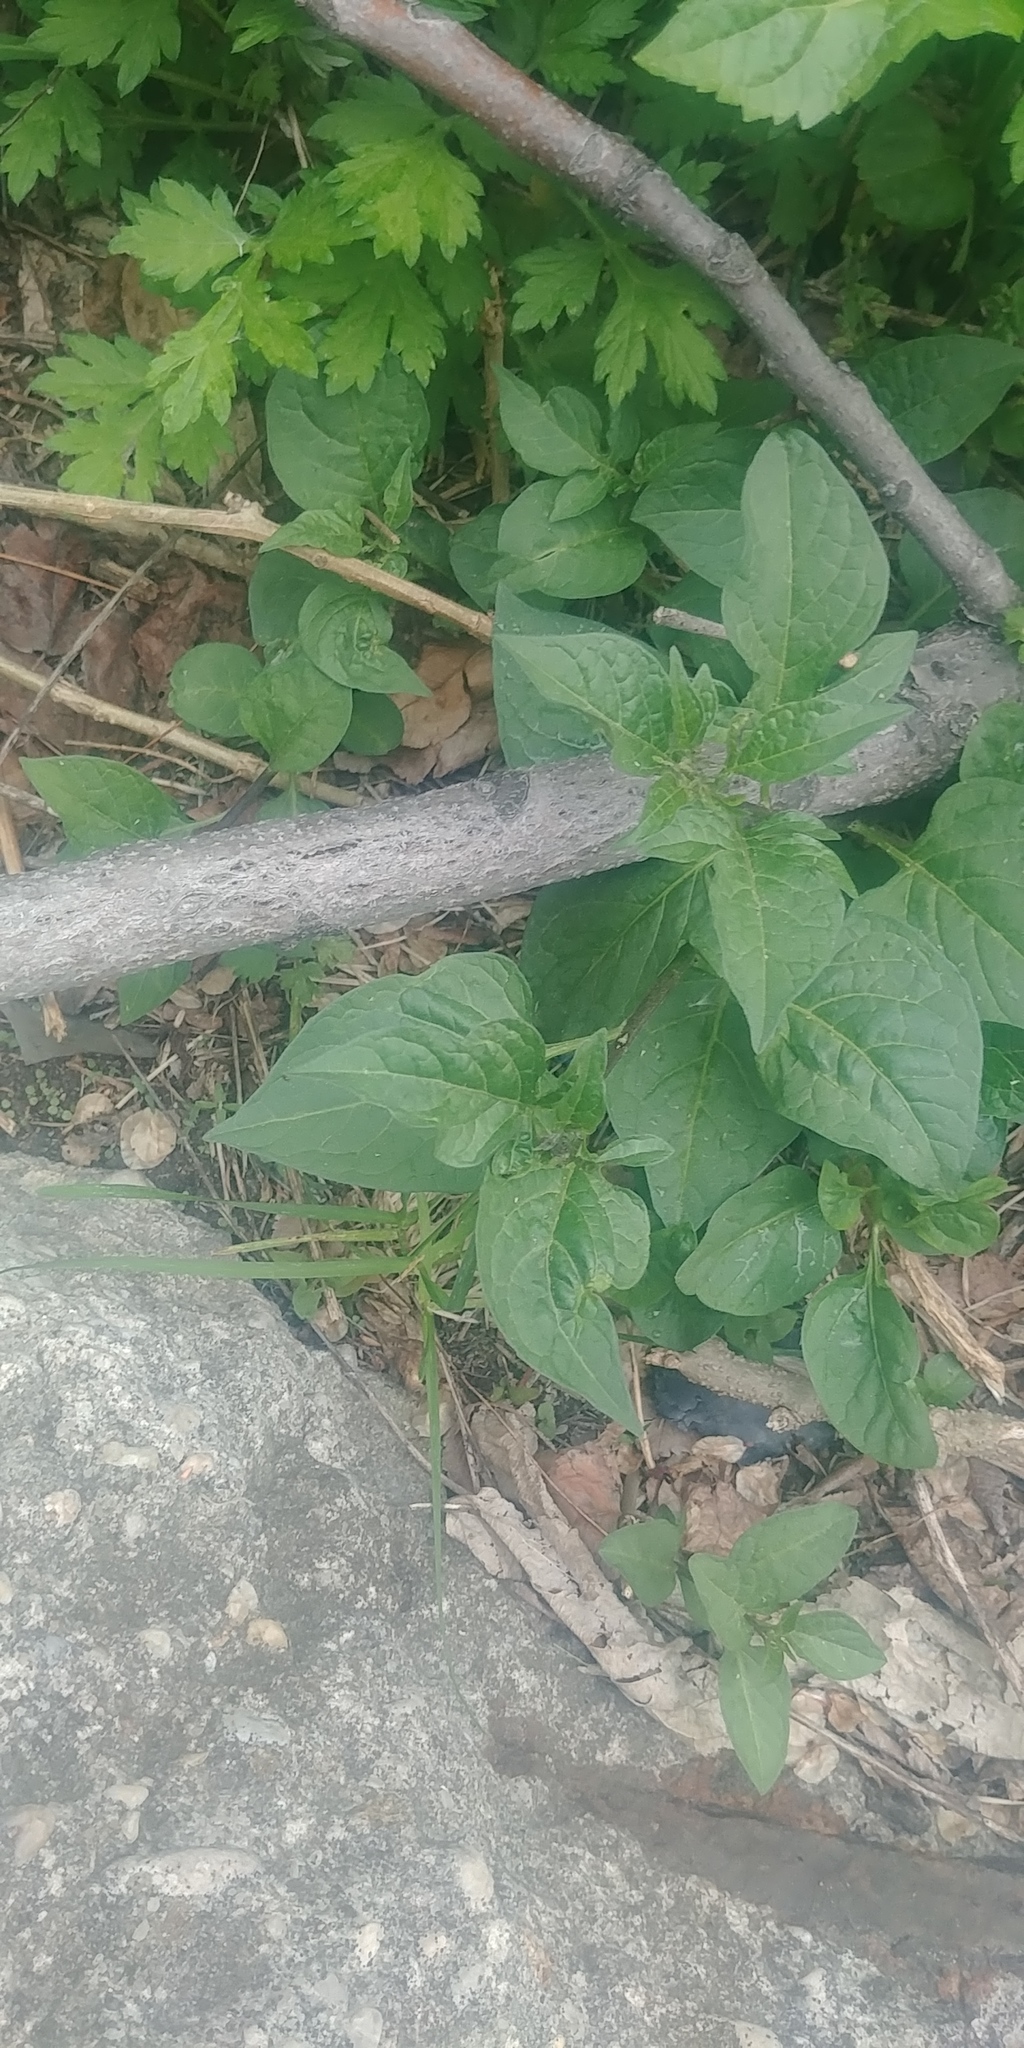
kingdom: Plantae
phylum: Tracheophyta
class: Magnoliopsida
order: Solanales
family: Solanaceae
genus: Solanum
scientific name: Solanum dulcamara
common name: Climbing nightshade
